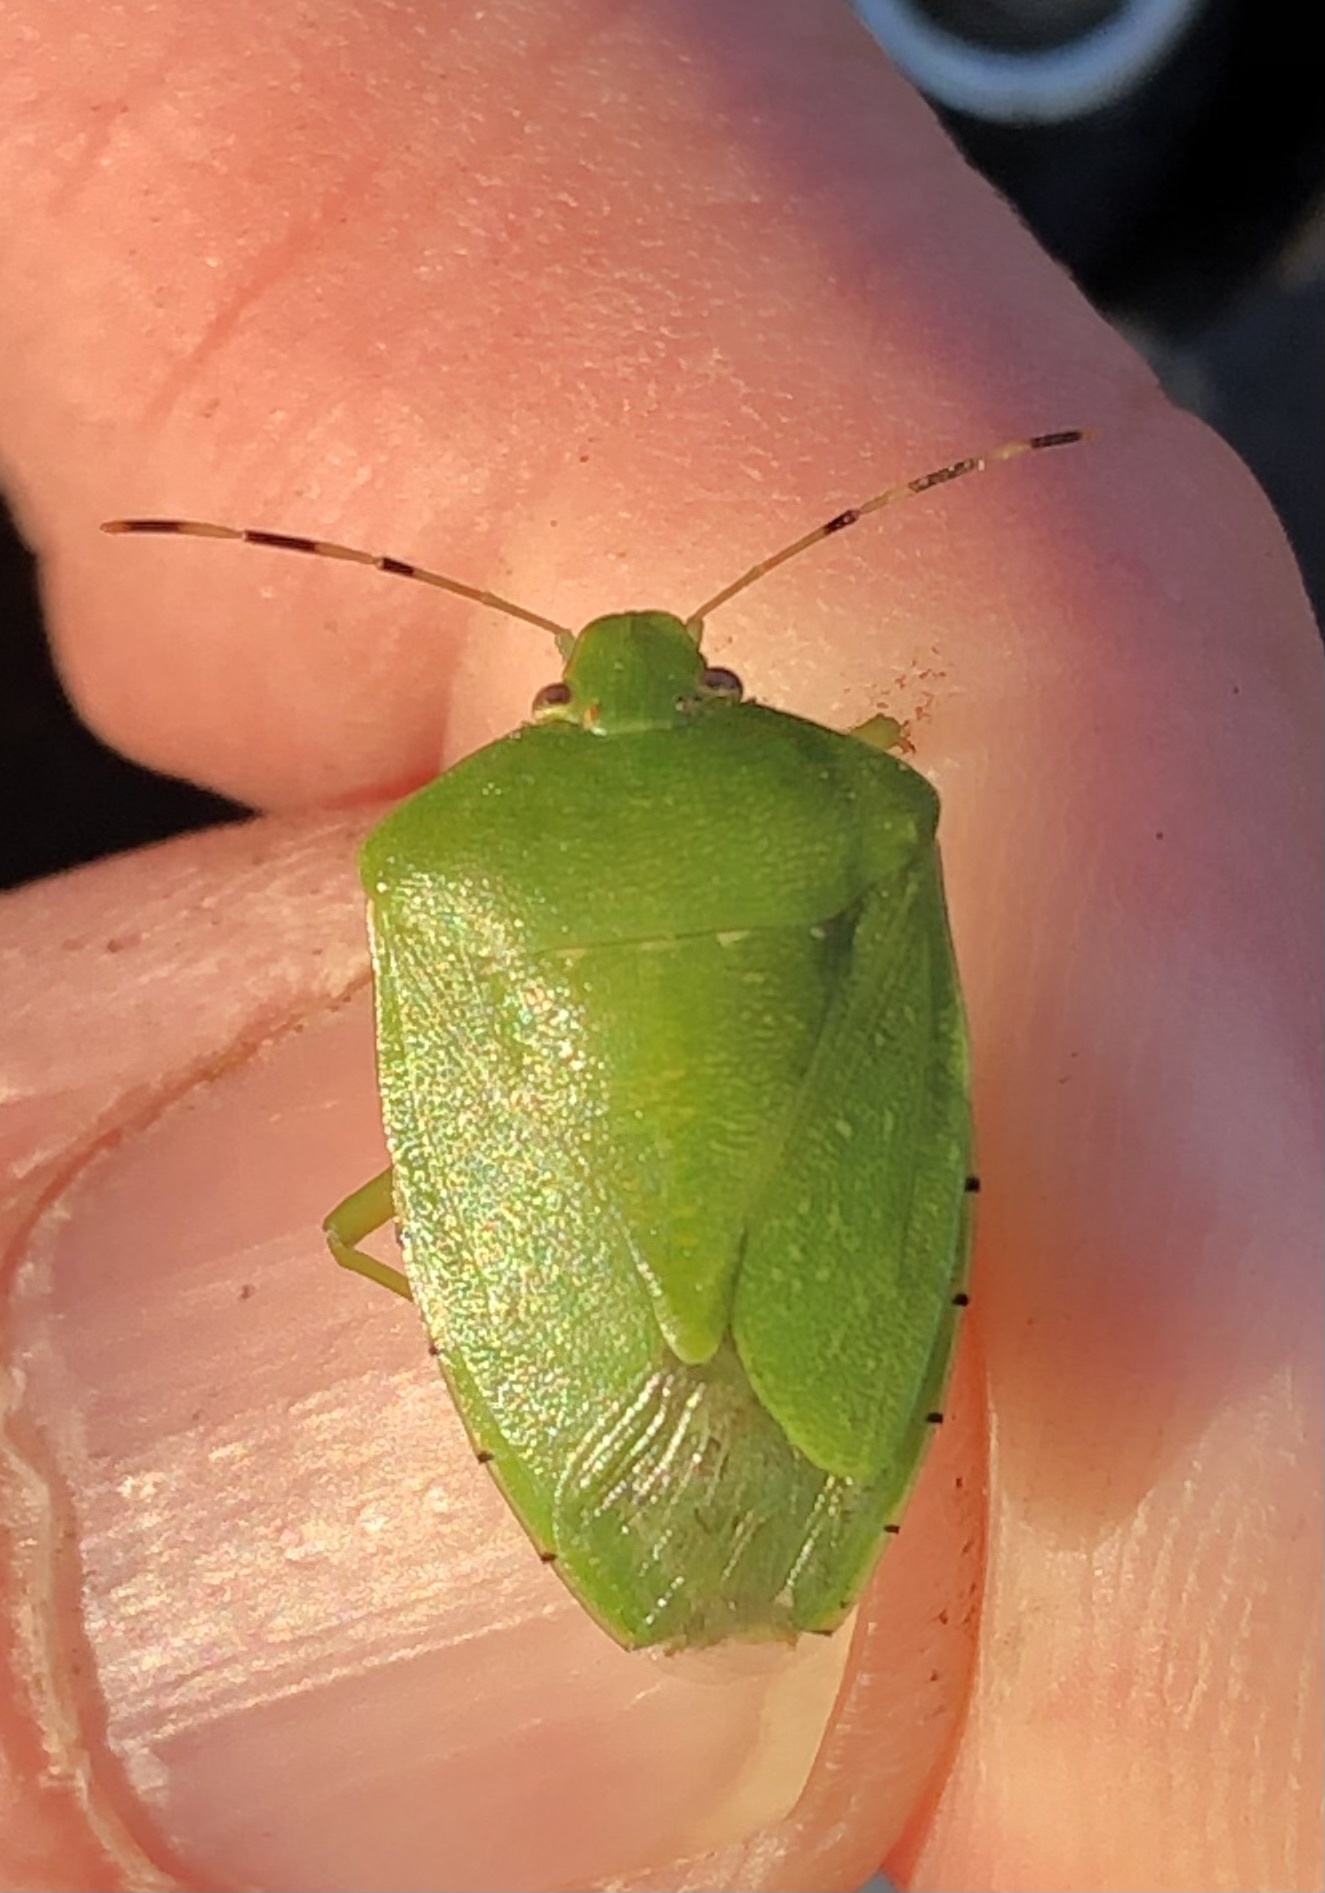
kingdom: Animalia
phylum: Arthropoda
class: Insecta
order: Hemiptera
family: Pentatomidae
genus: Chinavia
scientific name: Chinavia hilaris
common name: Green stink bug
